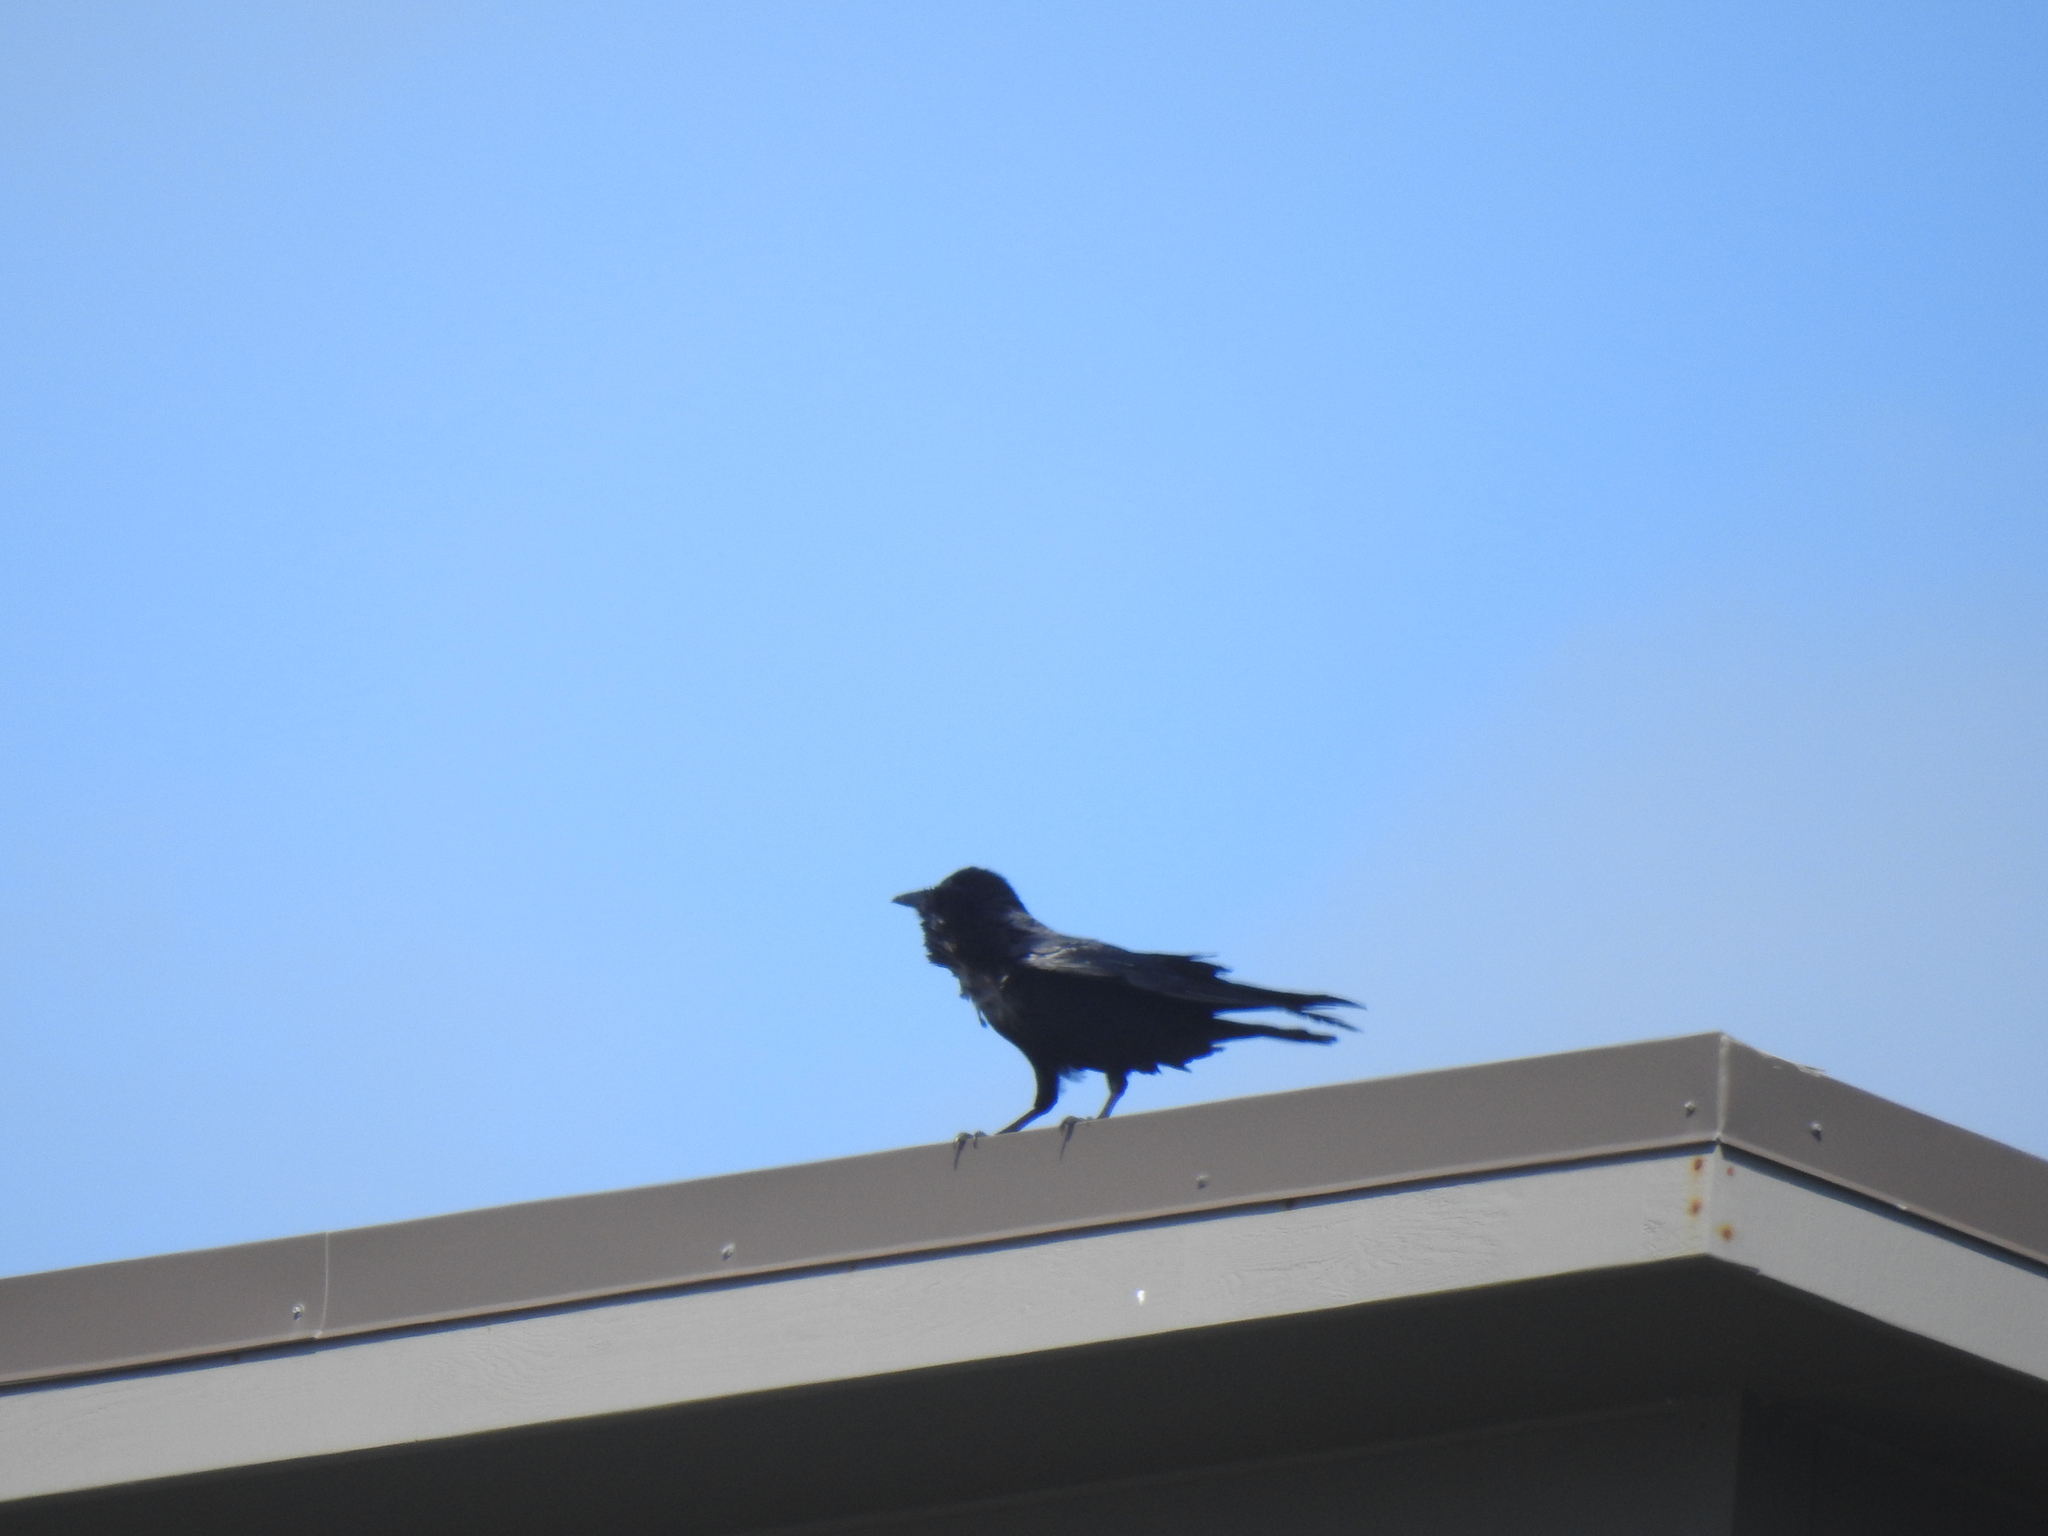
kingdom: Animalia
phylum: Chordata
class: Aves
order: Passeriformes
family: Corvidae
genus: Corvus
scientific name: Corvus corax
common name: Common raven
